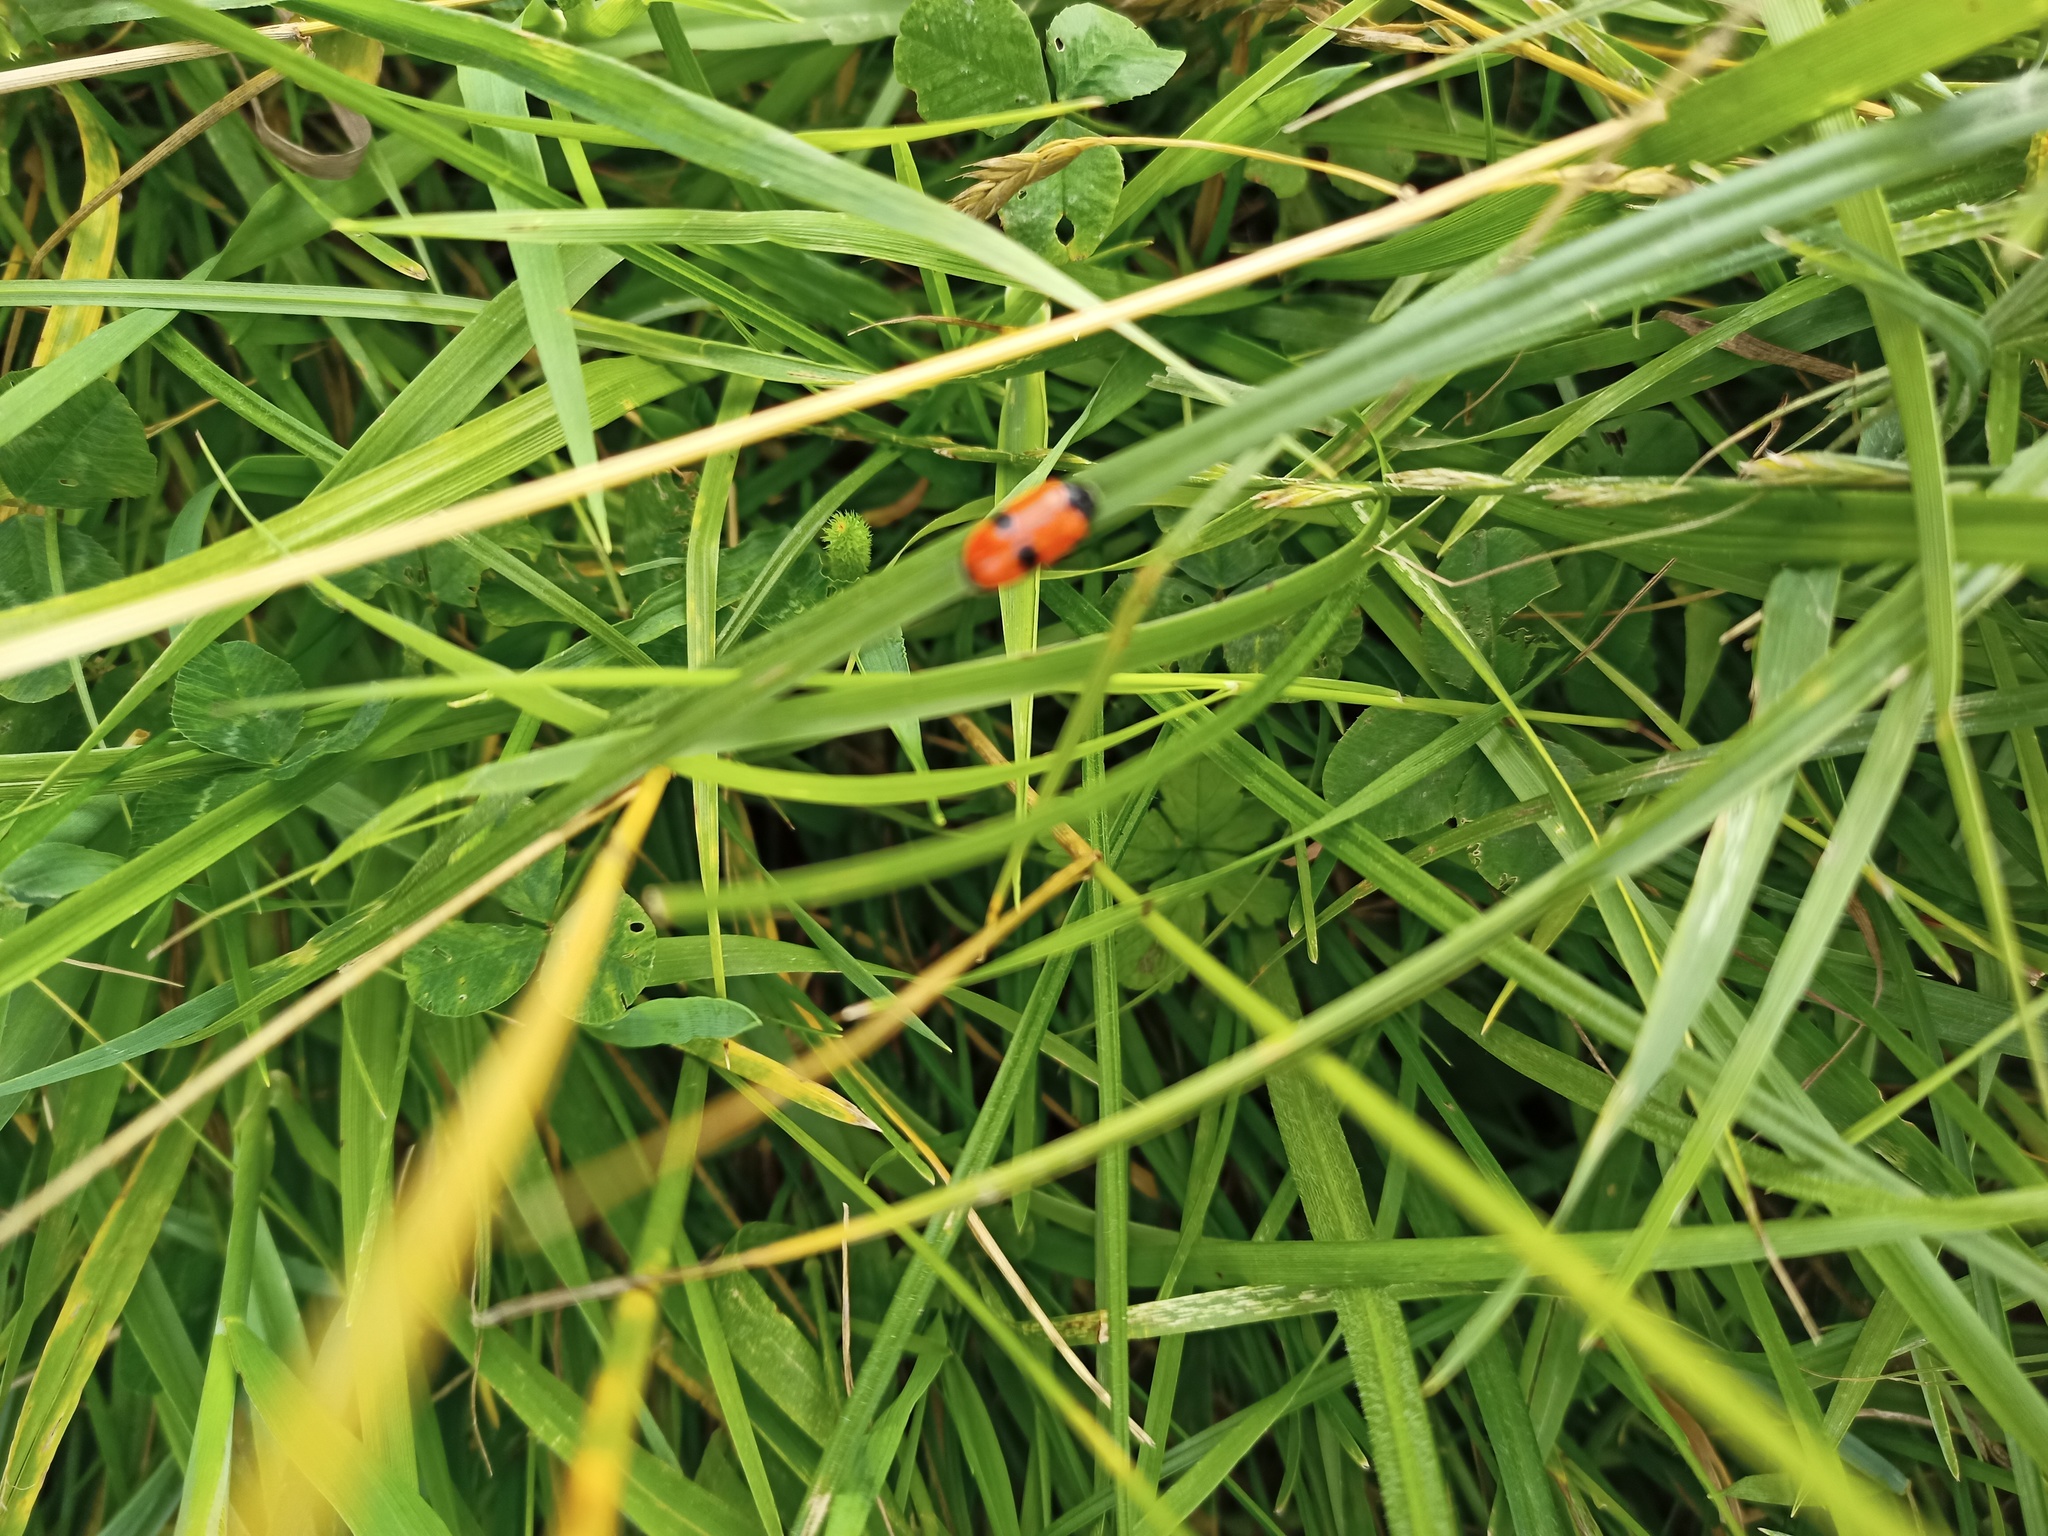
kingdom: Animalia
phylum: Arthropoda
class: Insecta
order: Coleoptera
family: Chrysomelidae
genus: Clytra
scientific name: Clytra laeviuscula
